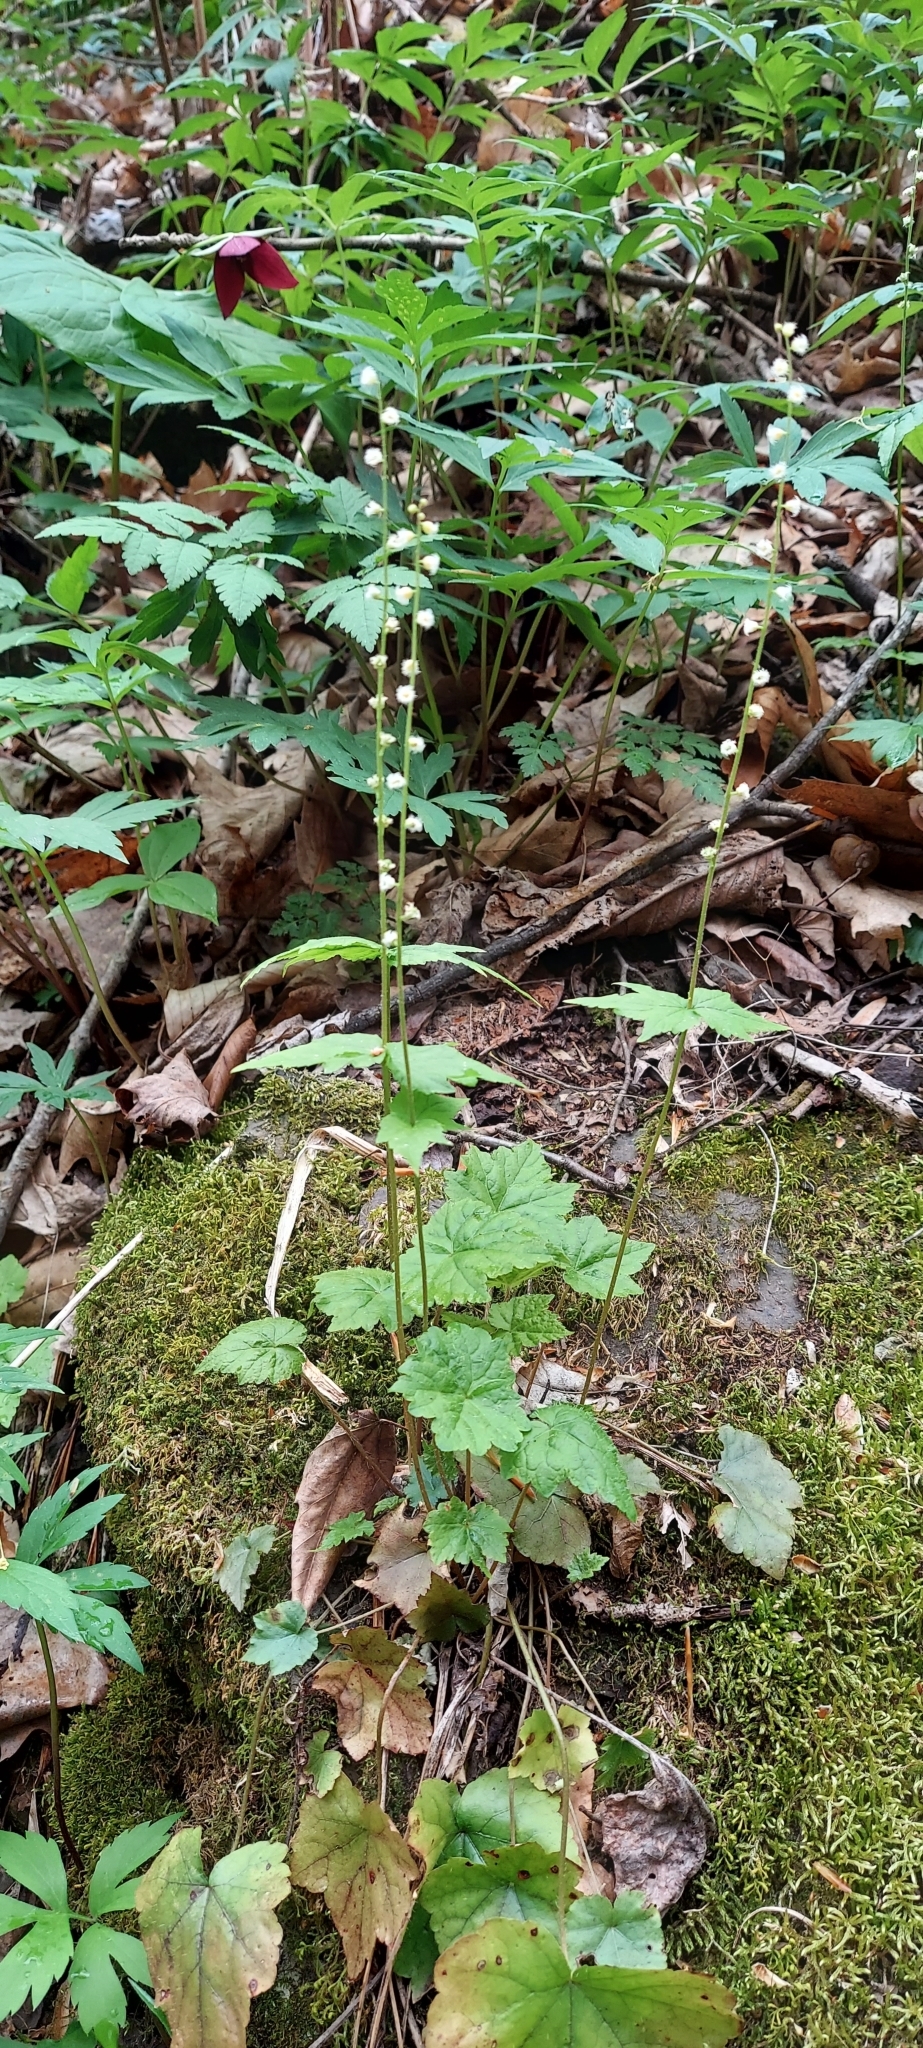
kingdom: Plantae
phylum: Tracheophyta
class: Magnoliopsida
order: Saxifragales
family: Saxifragaceae
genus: Mitella
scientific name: Mitella diphylla
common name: Coolwort
